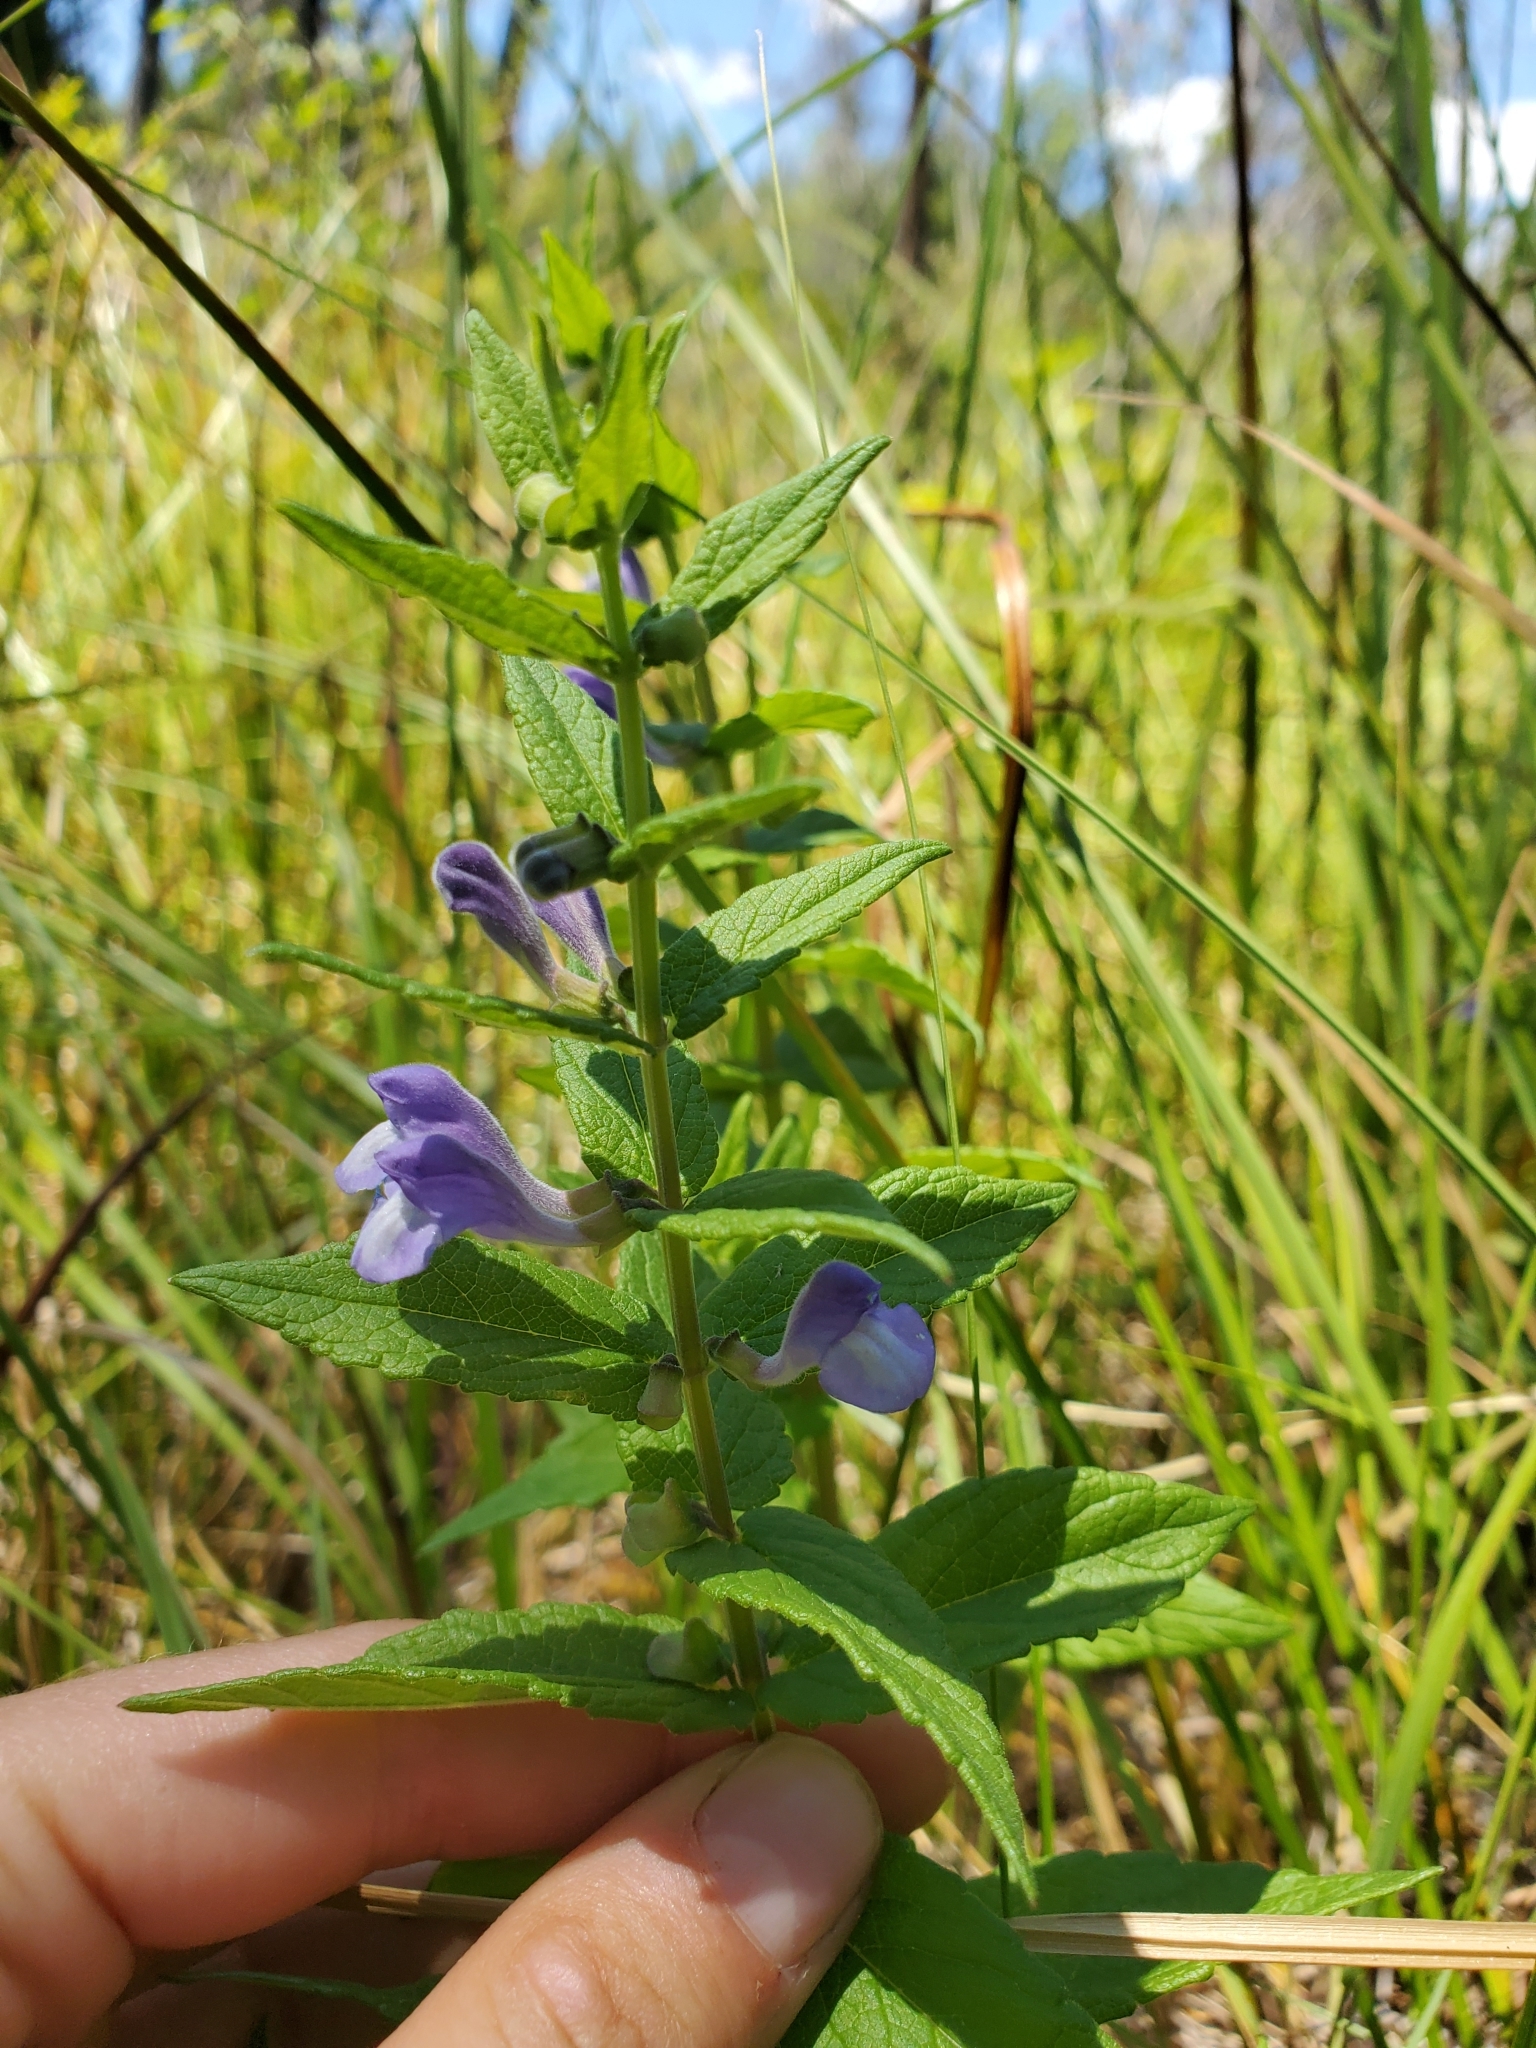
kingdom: Plantae
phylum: Tracheophyta
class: Magnoliopsida
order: Lamiales
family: Lamiaceae
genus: Scutellaria
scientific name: Scutellaria galericulata
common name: Skullcap
